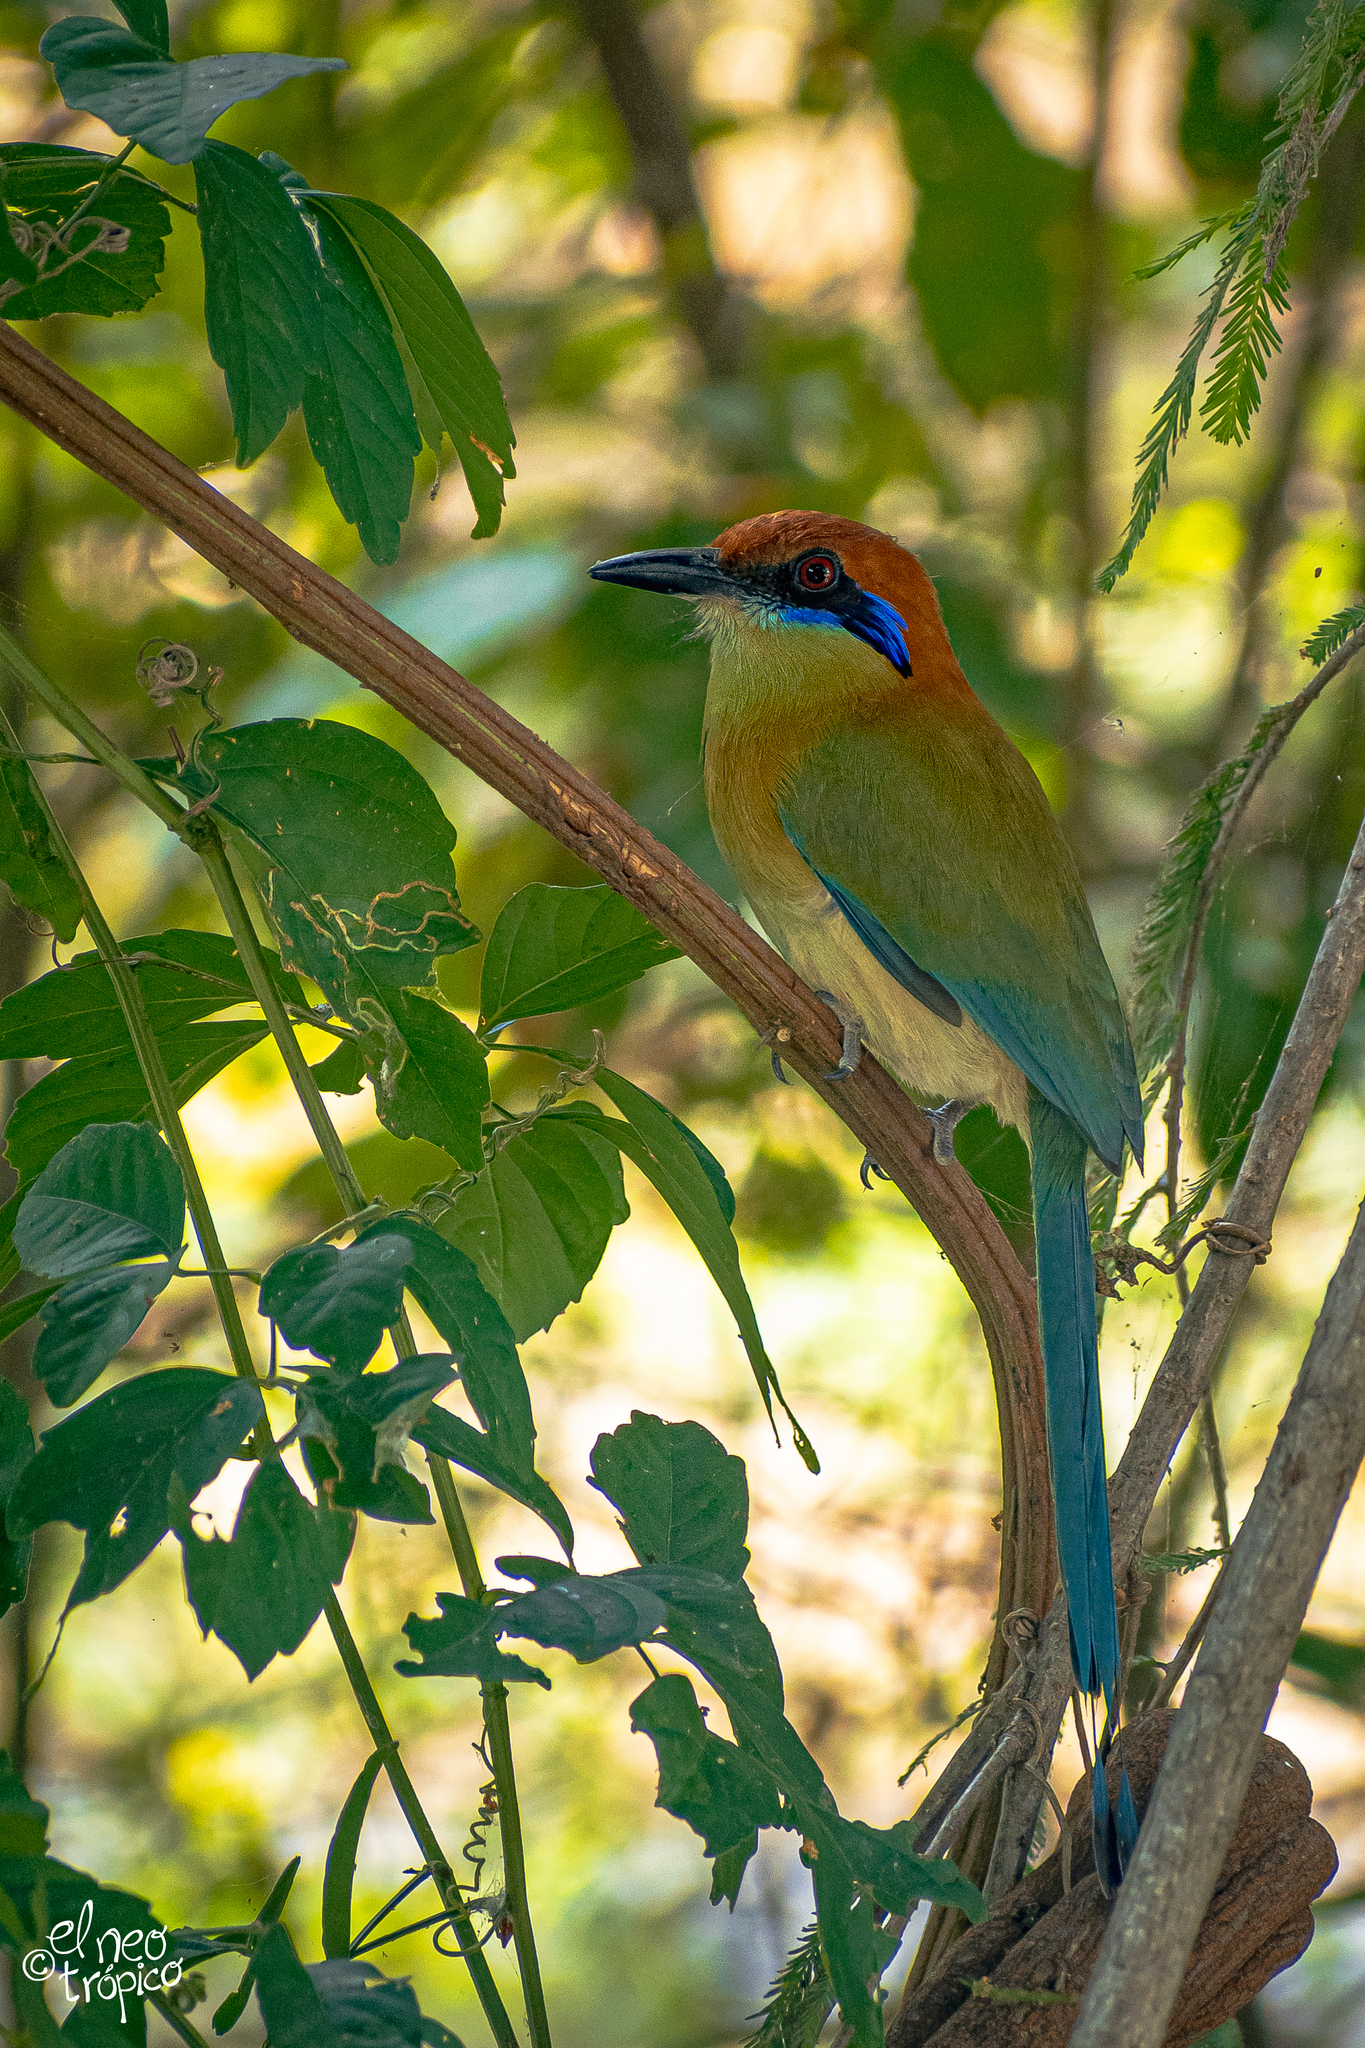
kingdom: Animalia
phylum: Chordata
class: Aves
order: Coraciiformes
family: Momotidae
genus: Momotus
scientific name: Momotus mexicanus
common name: Russet-crowned motmot
